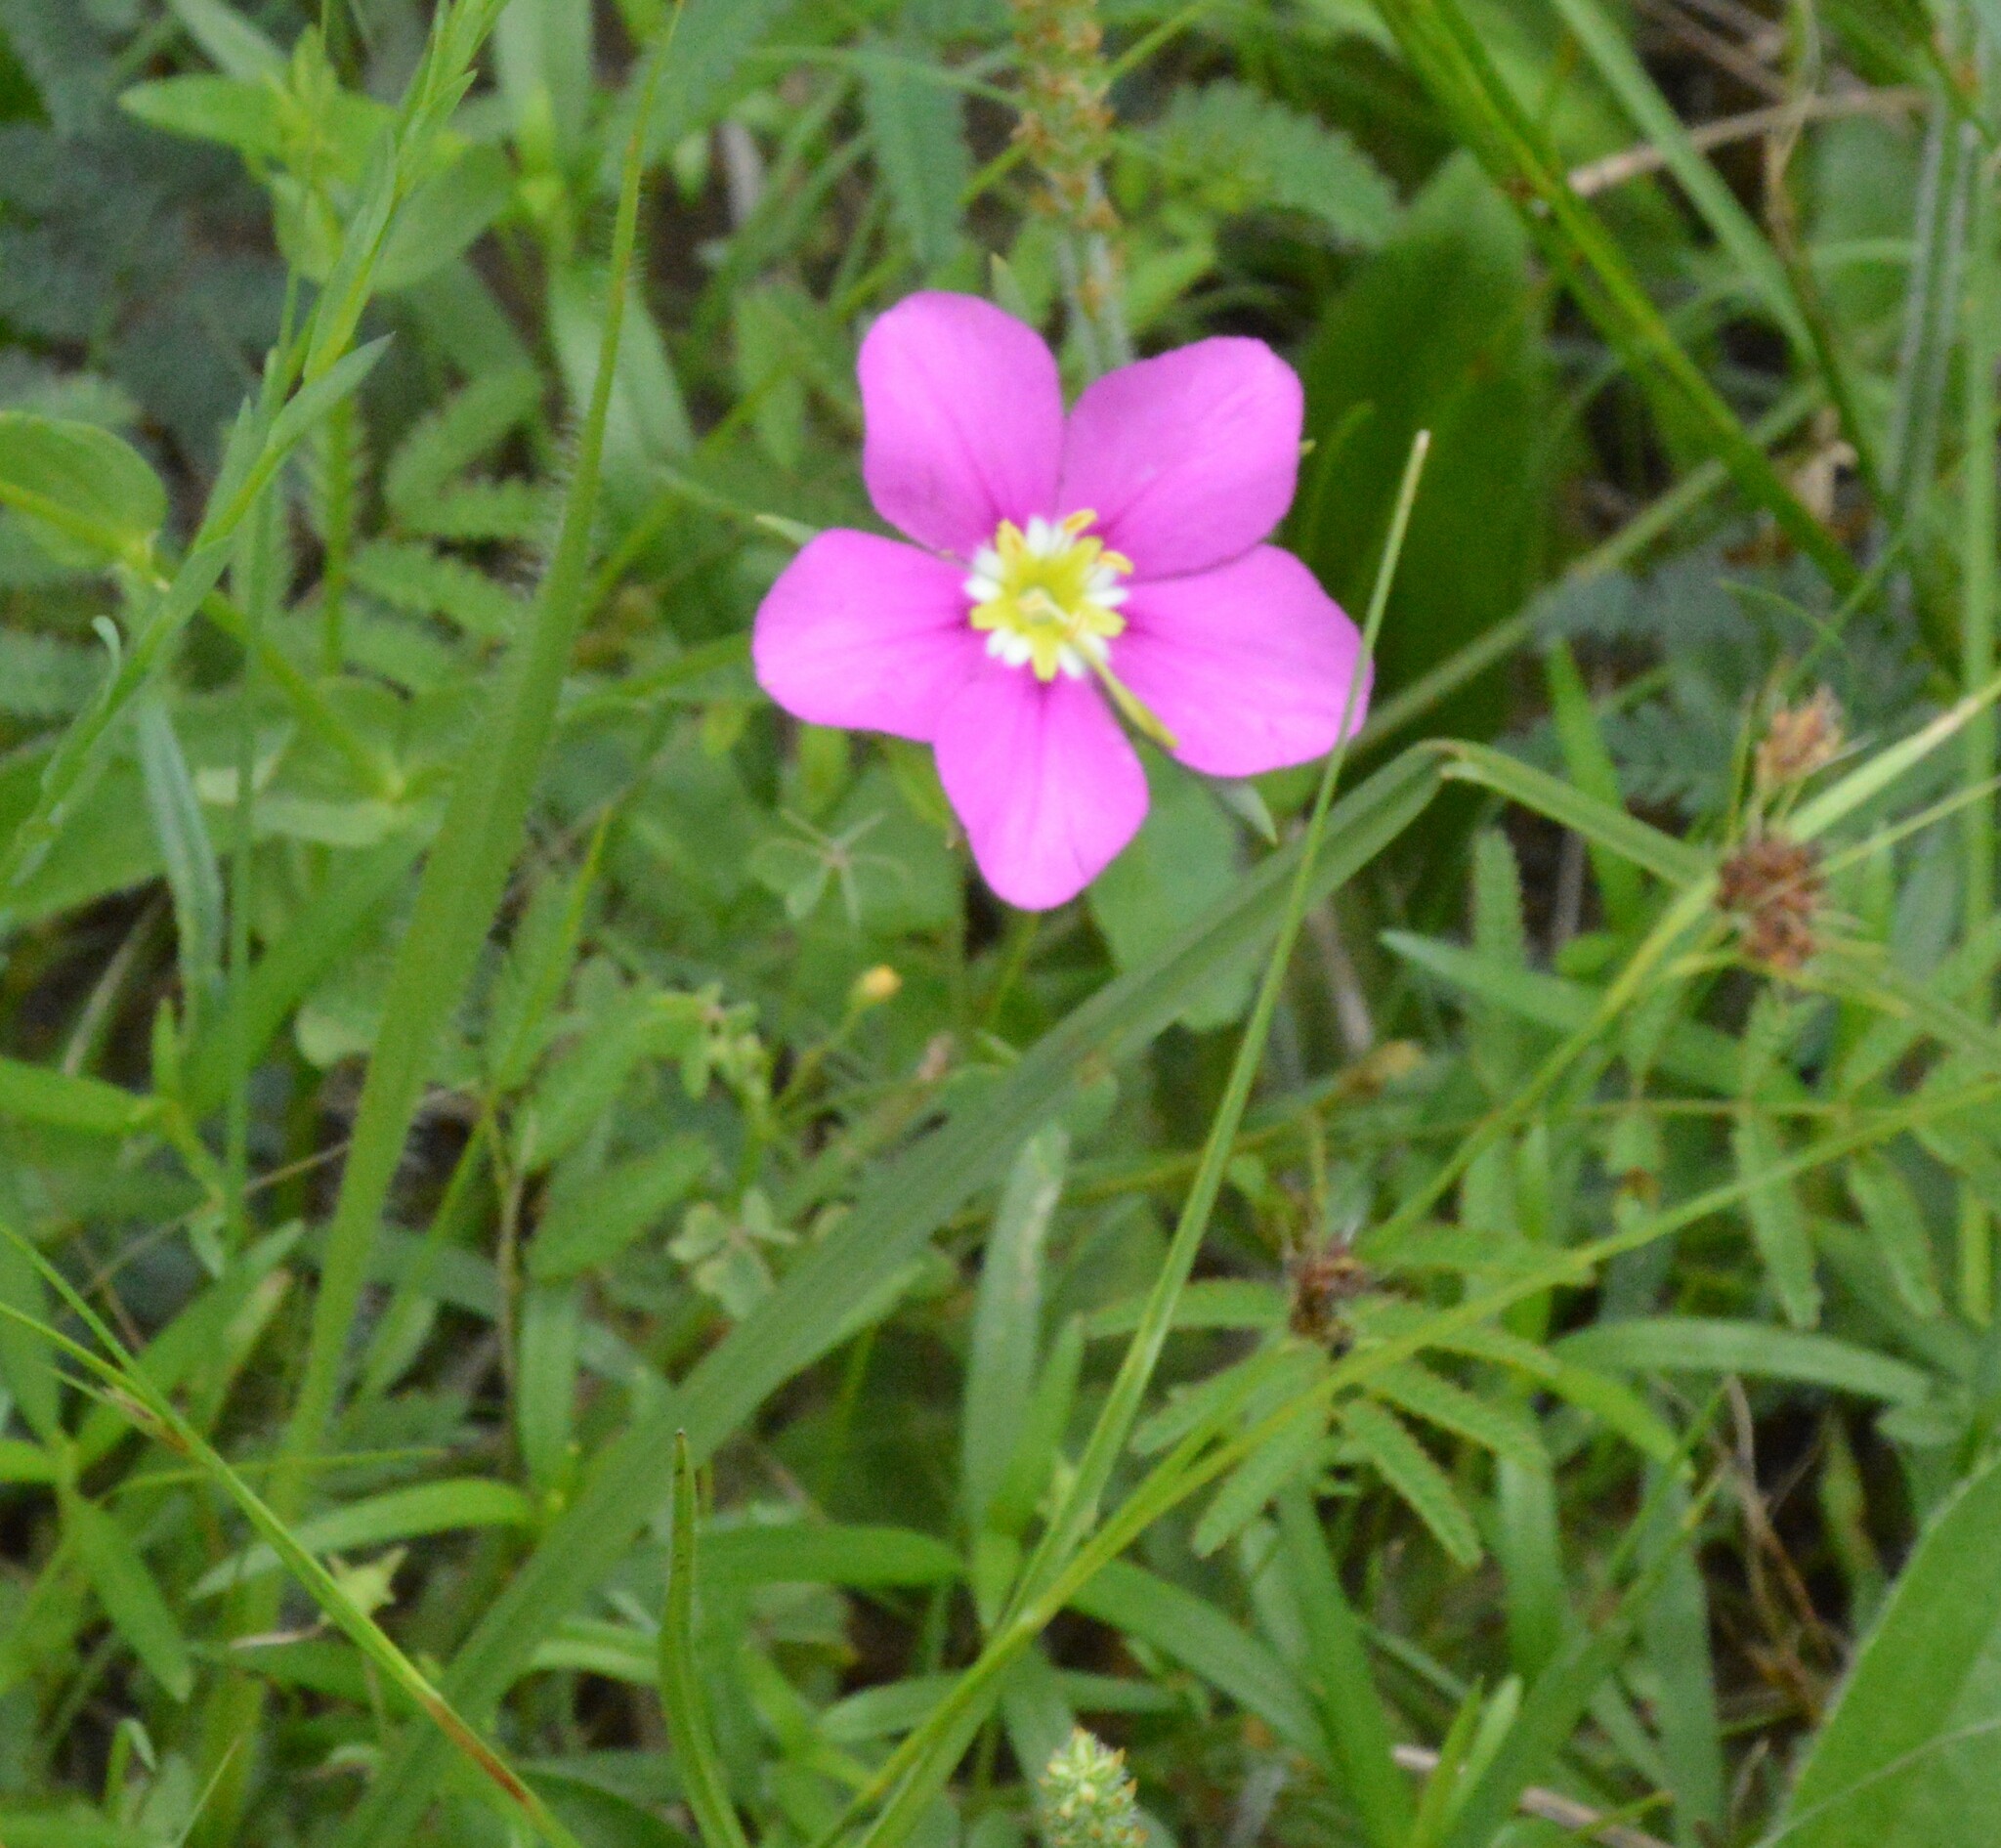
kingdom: Plantae
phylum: Tracheophyta
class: Magnoliopsida
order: Gentianales
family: Gentianaceae
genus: Sabatia
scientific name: Sabatia campestris
